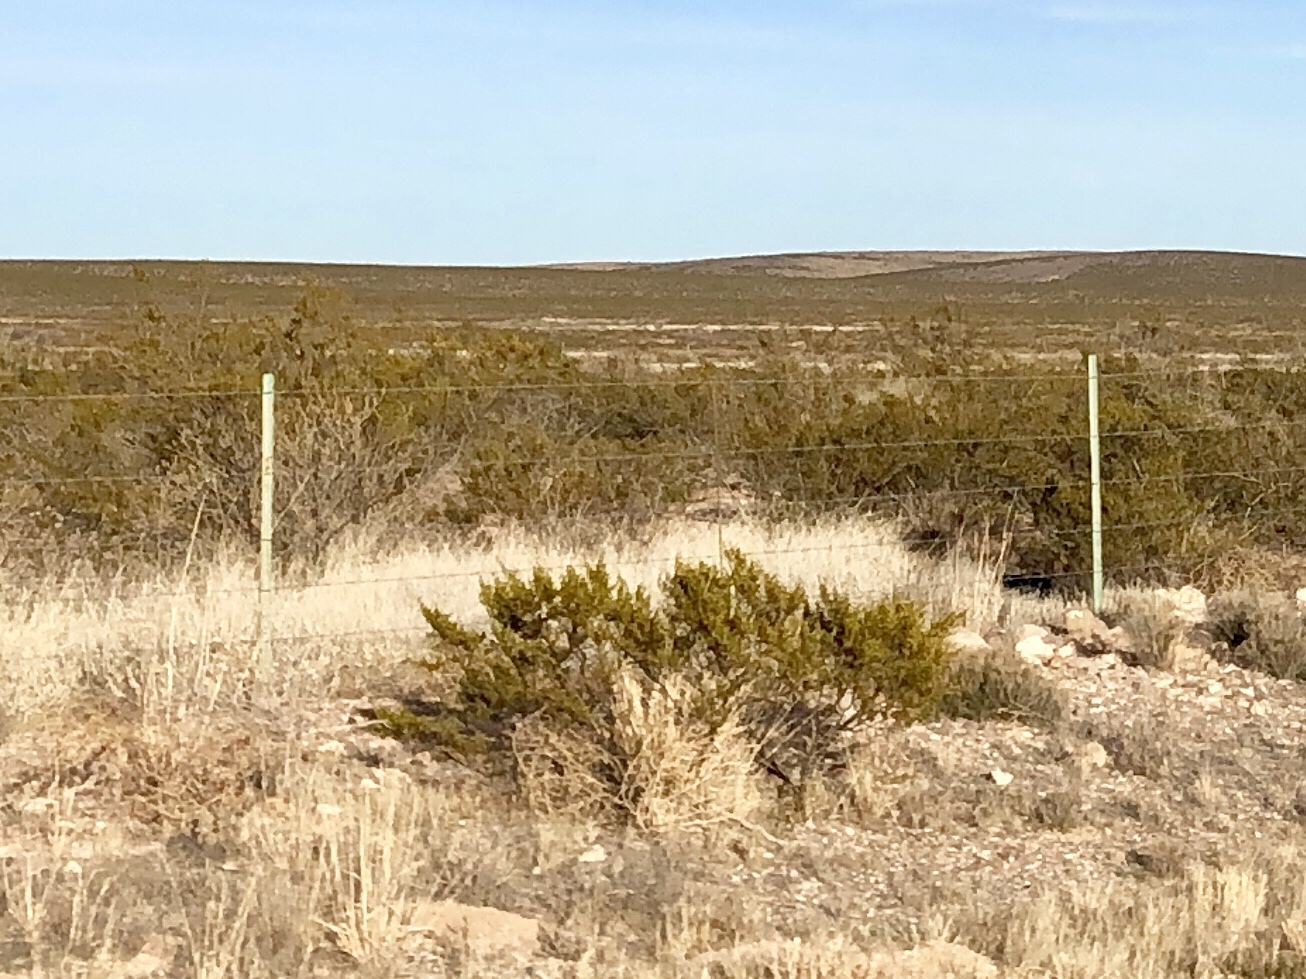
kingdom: Plantae
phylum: Tracheophyta
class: Magnoliopsida
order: Zygophyllales
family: Zygophyllaceae
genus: Larrea
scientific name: Larrea tridentata
